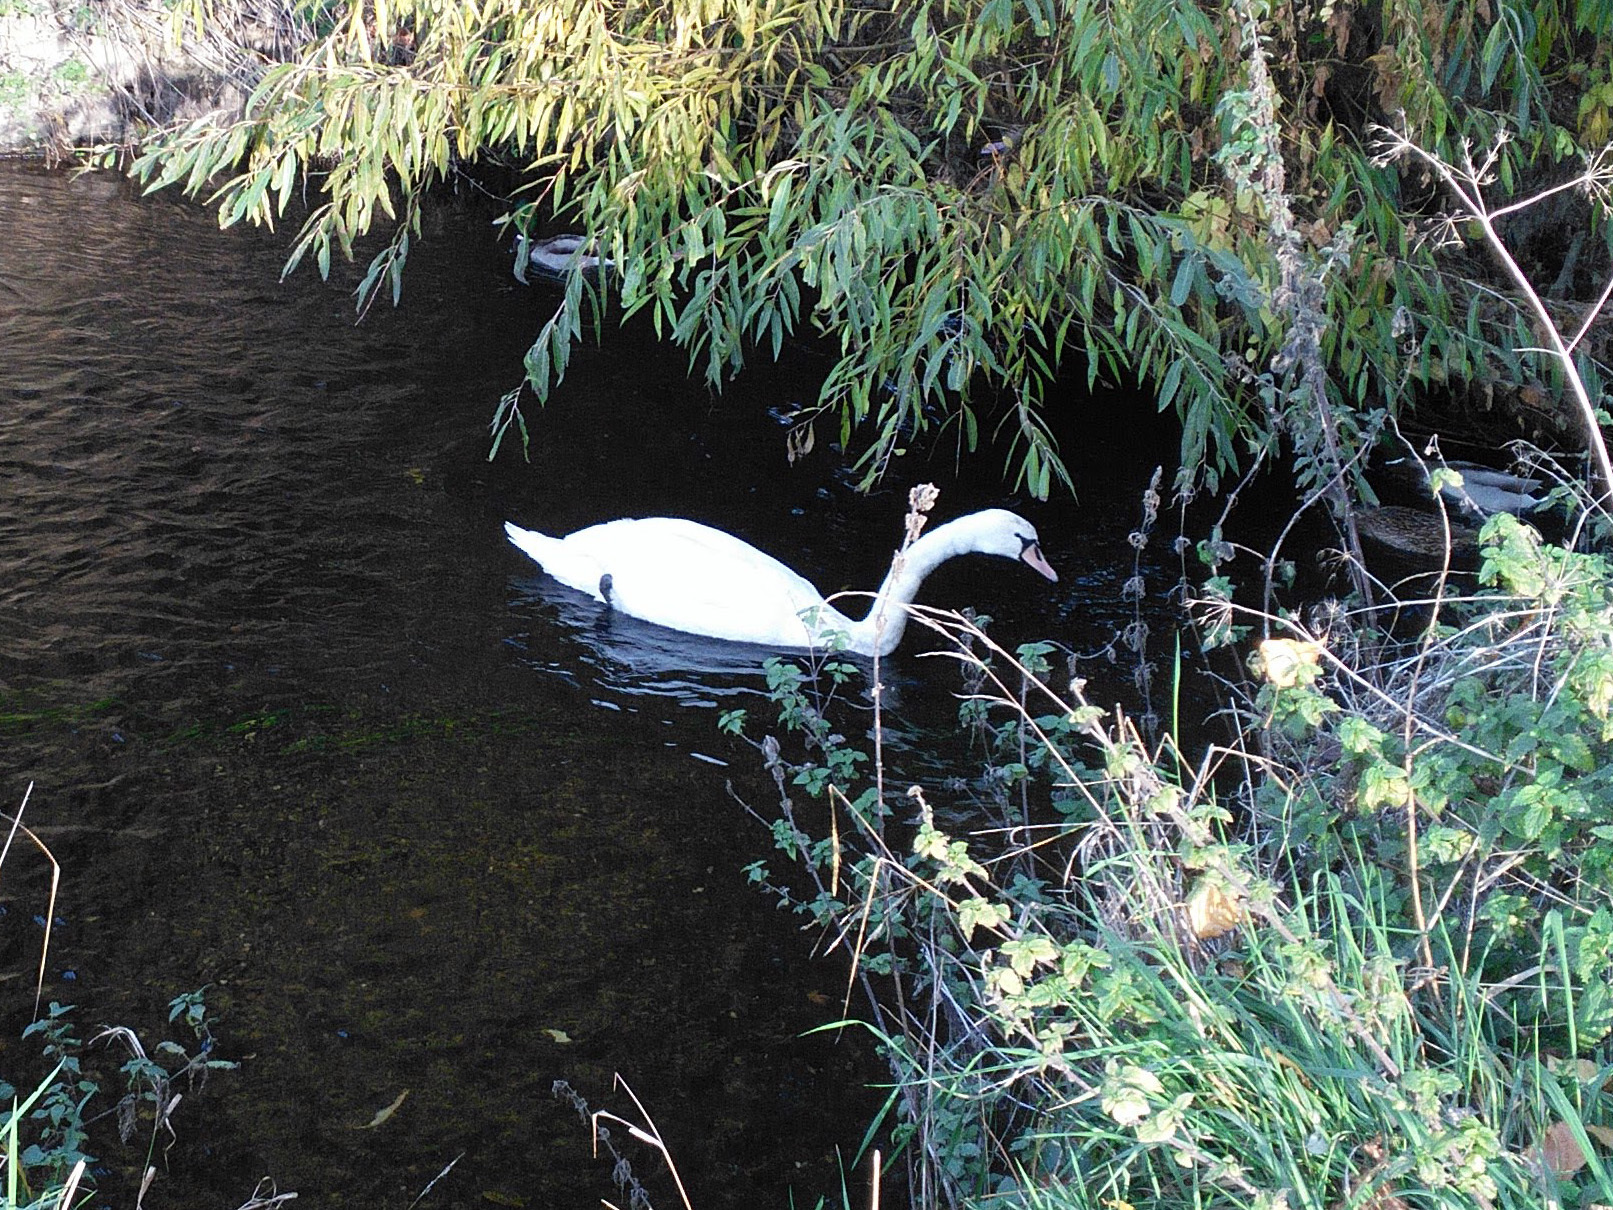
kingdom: Animalia
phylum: Chordata
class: Aves
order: Anseriformes
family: Anatidae
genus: Cygnus
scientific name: Cygnus olor
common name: Mute swan
